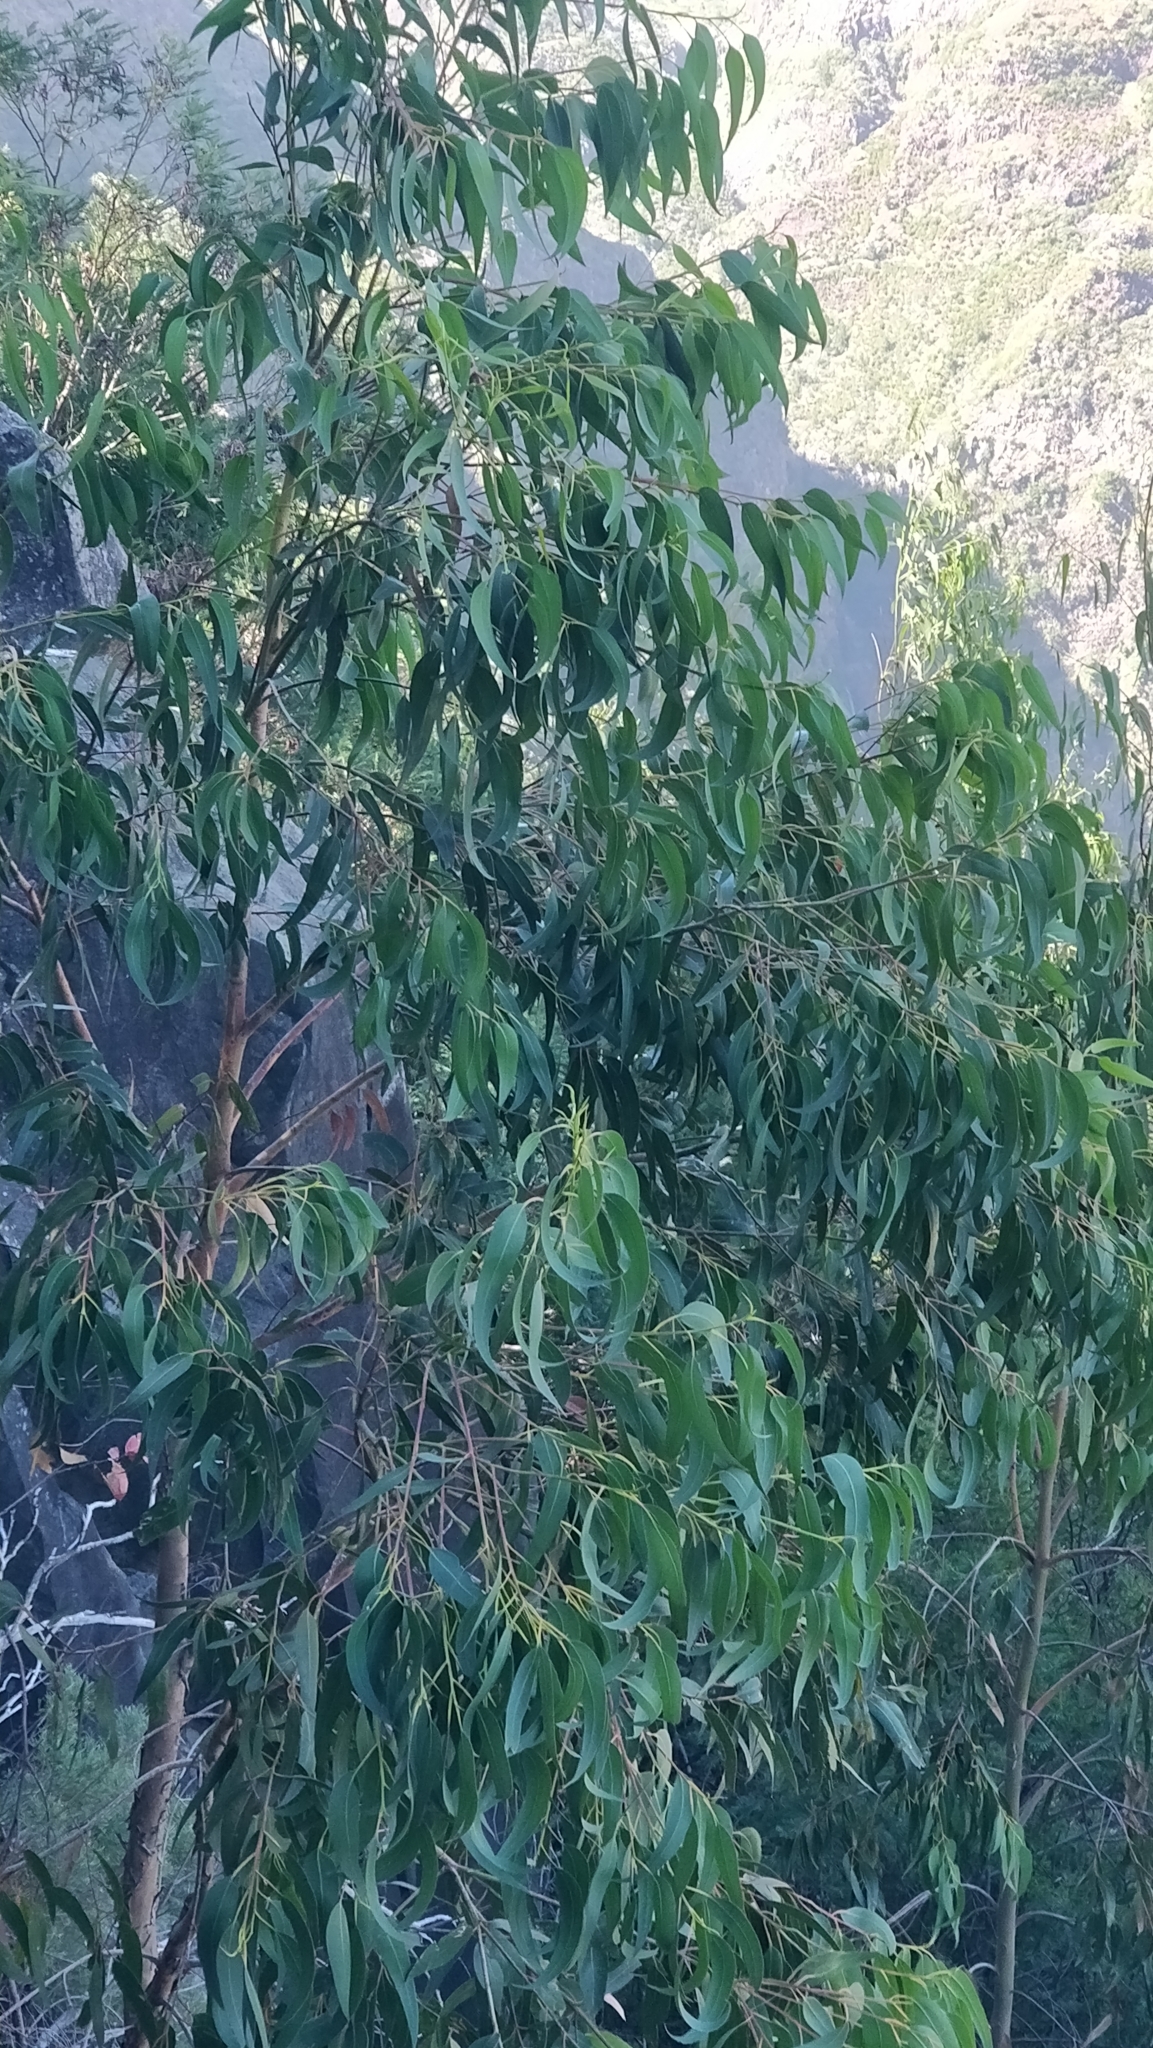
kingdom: Plantae
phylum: Tracheophyta
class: Magnoliopsida
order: Myrtales
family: Myrtaceae
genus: Eucalyptus
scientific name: Eucalyptus globulus
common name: Southern blue-gum
